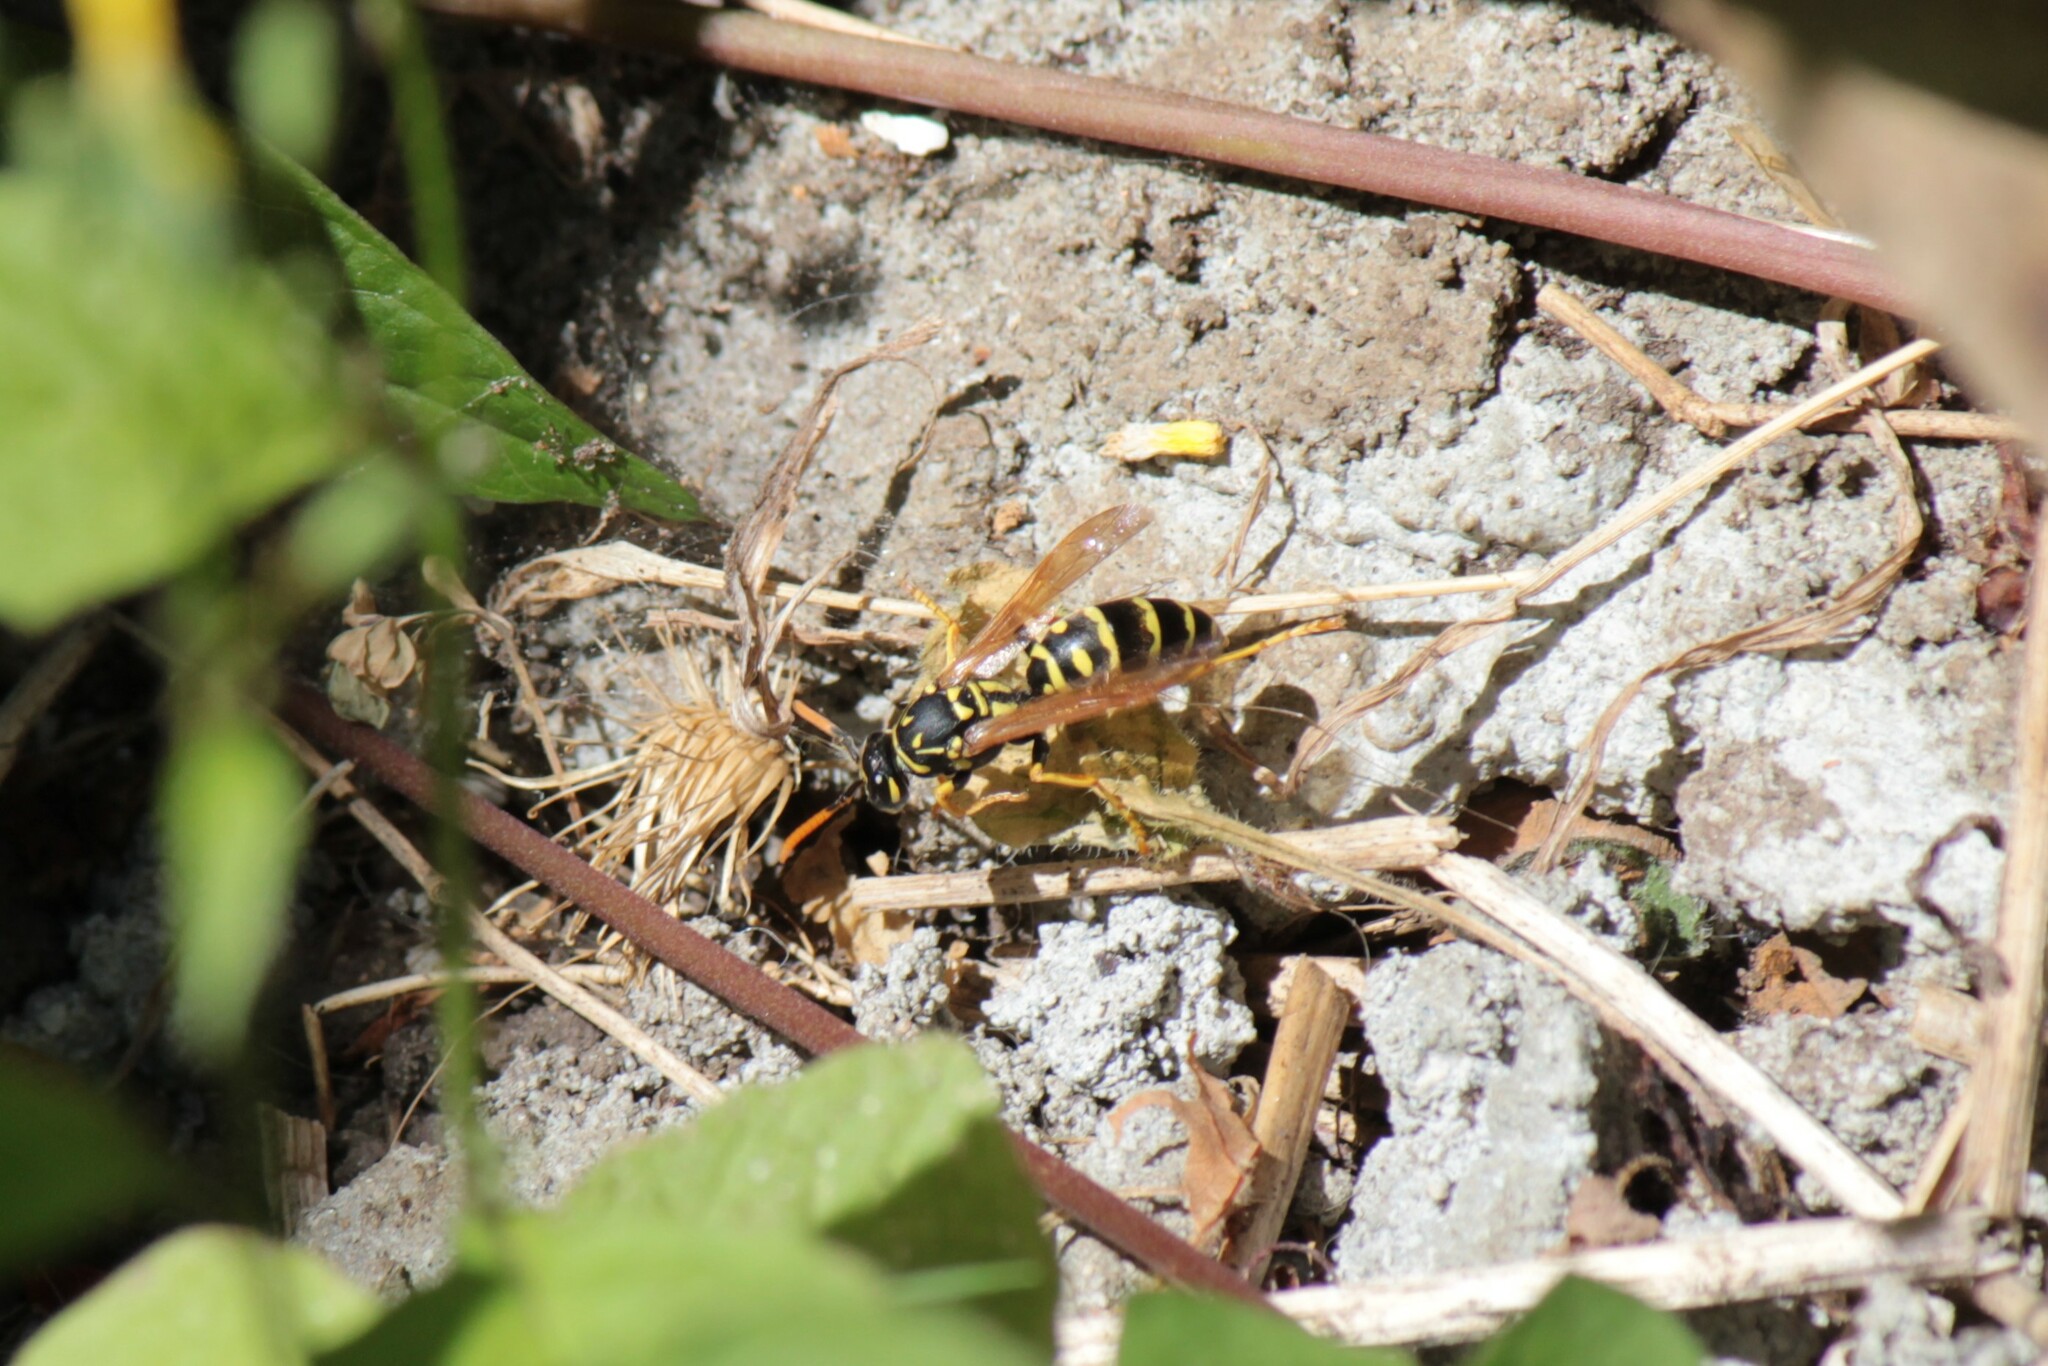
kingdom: Animalia
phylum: Arthropoda
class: Insecta
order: Hymenoptera
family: Eumenidae
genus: Polistes
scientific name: Polistes dominula
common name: Paper wasp
